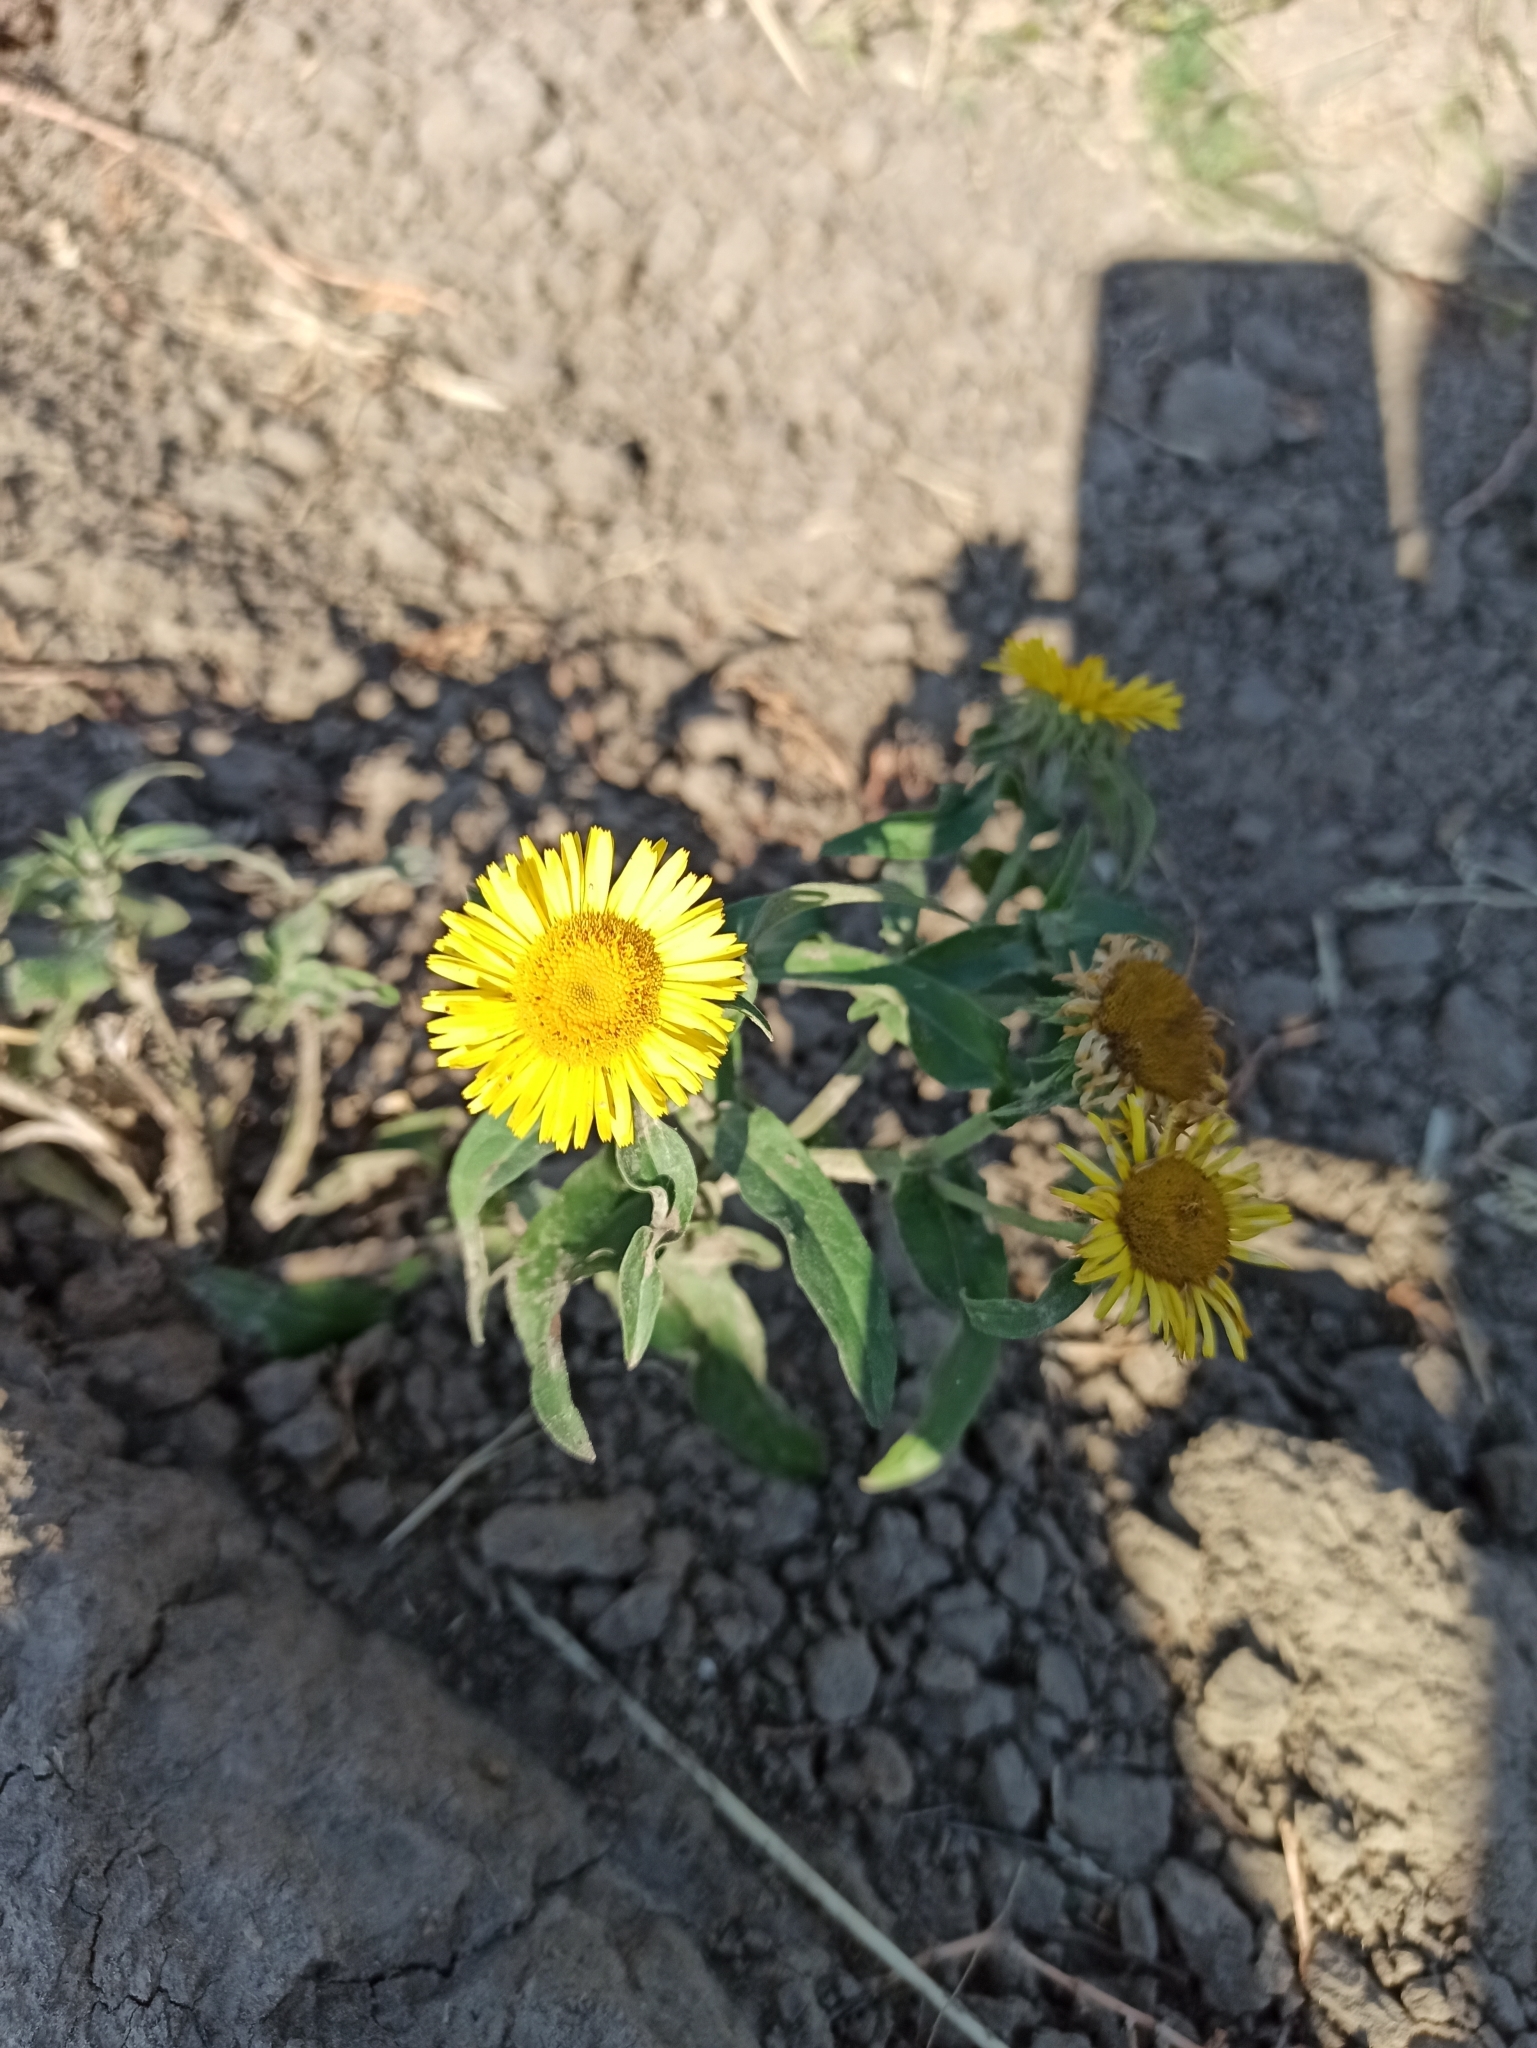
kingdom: Plantae
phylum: Tracheophyta
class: Magnoliopsida
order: Asterales
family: Asteraceae
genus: Pentanema
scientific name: Pentanema britannicum
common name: British elecampane
